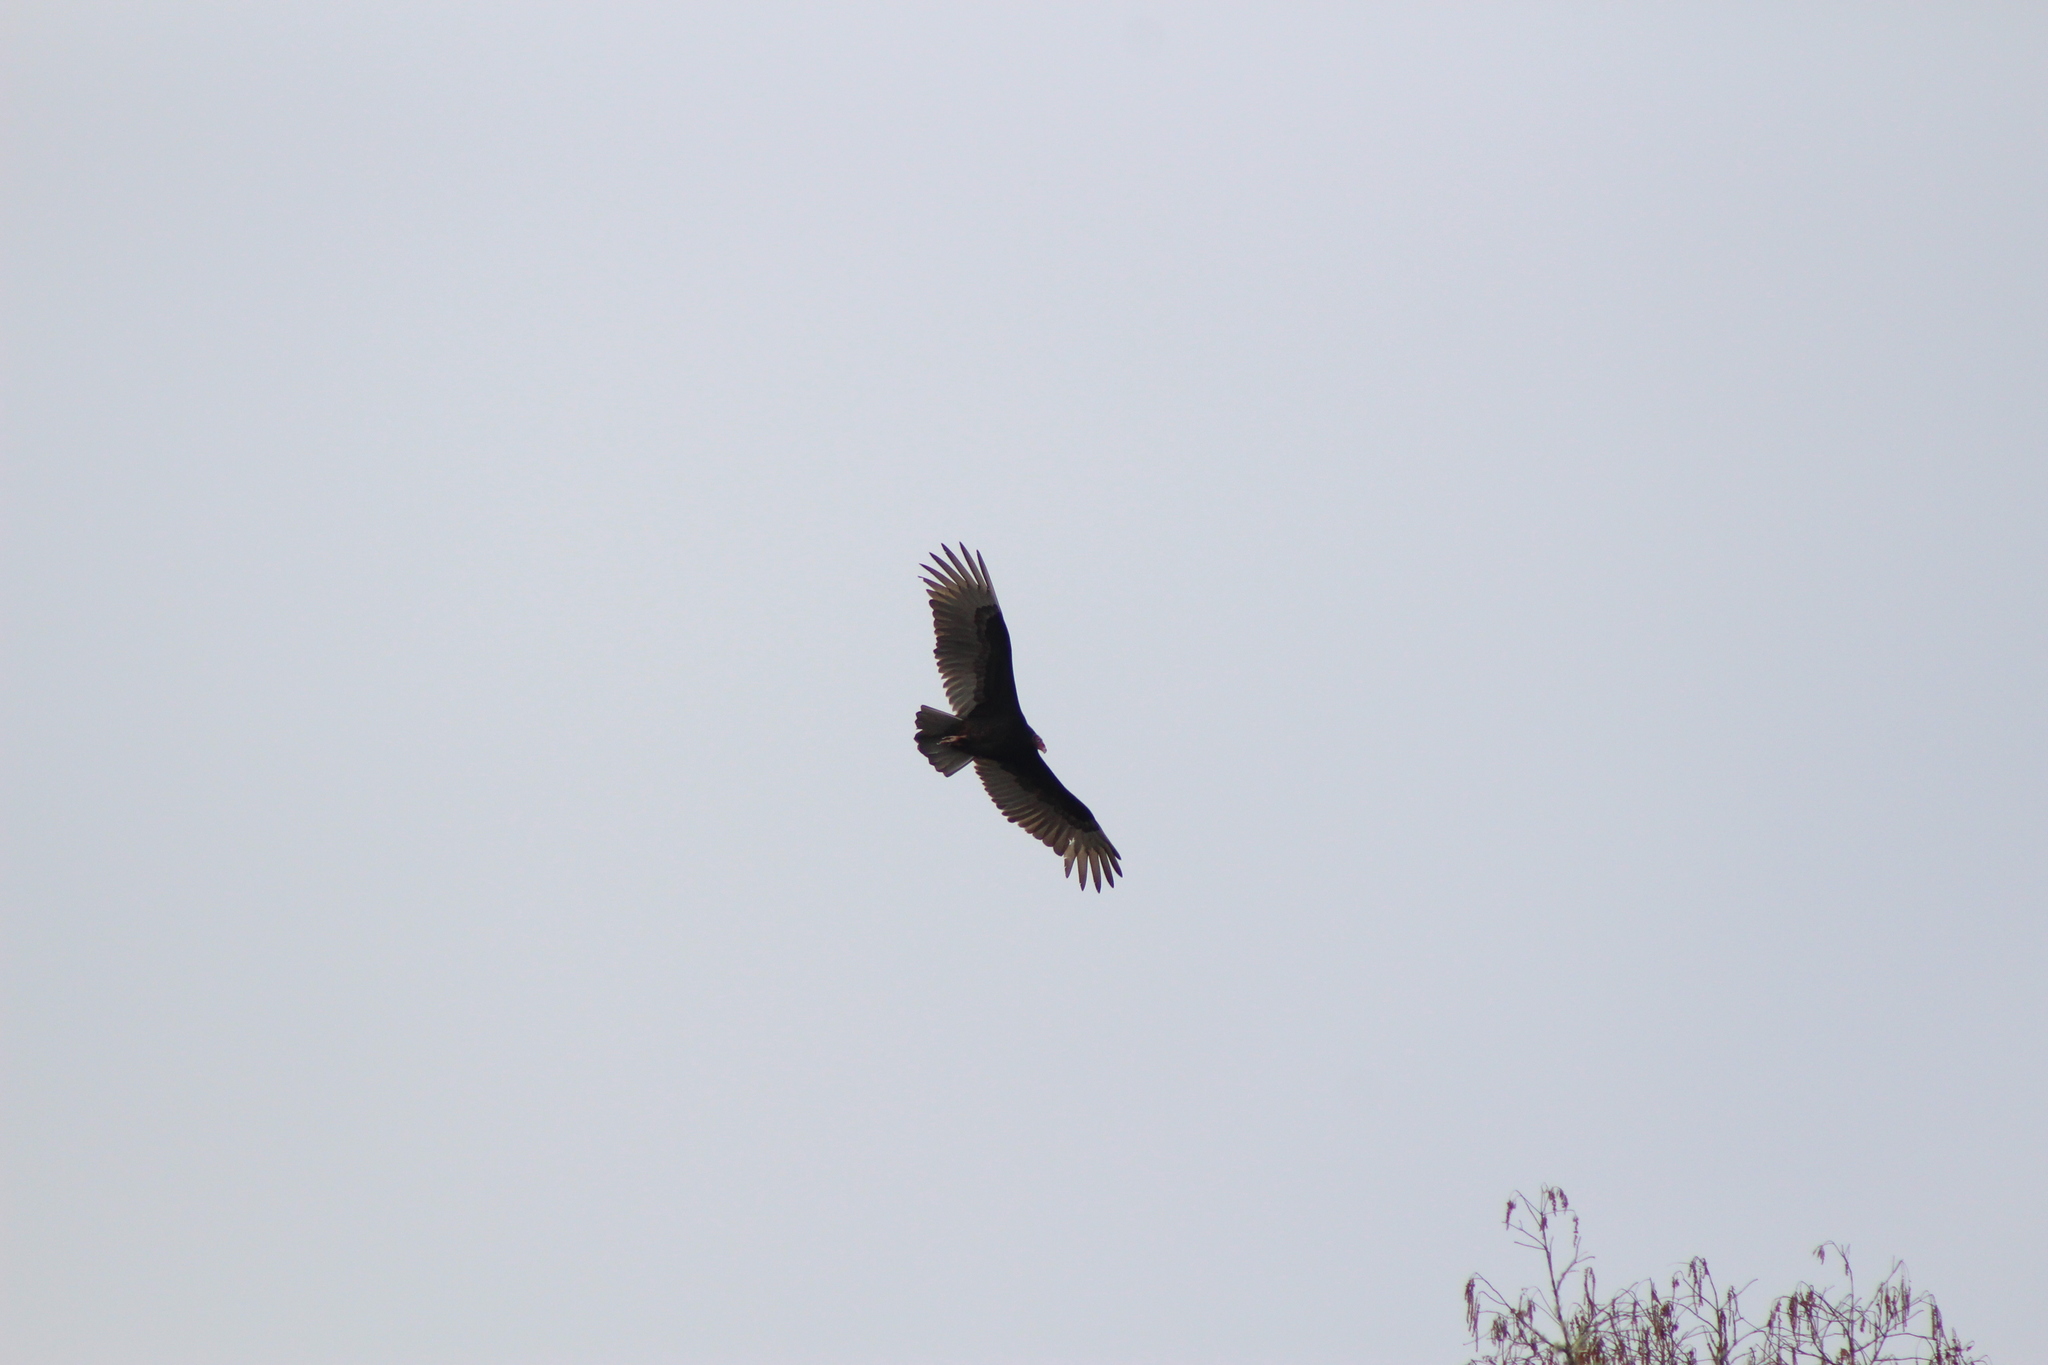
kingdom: Animalia
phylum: Chordata
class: Aves
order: Accipitriformes
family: Cathartidae
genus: Cathartes
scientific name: Cathartes aura
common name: Turkey vulture
